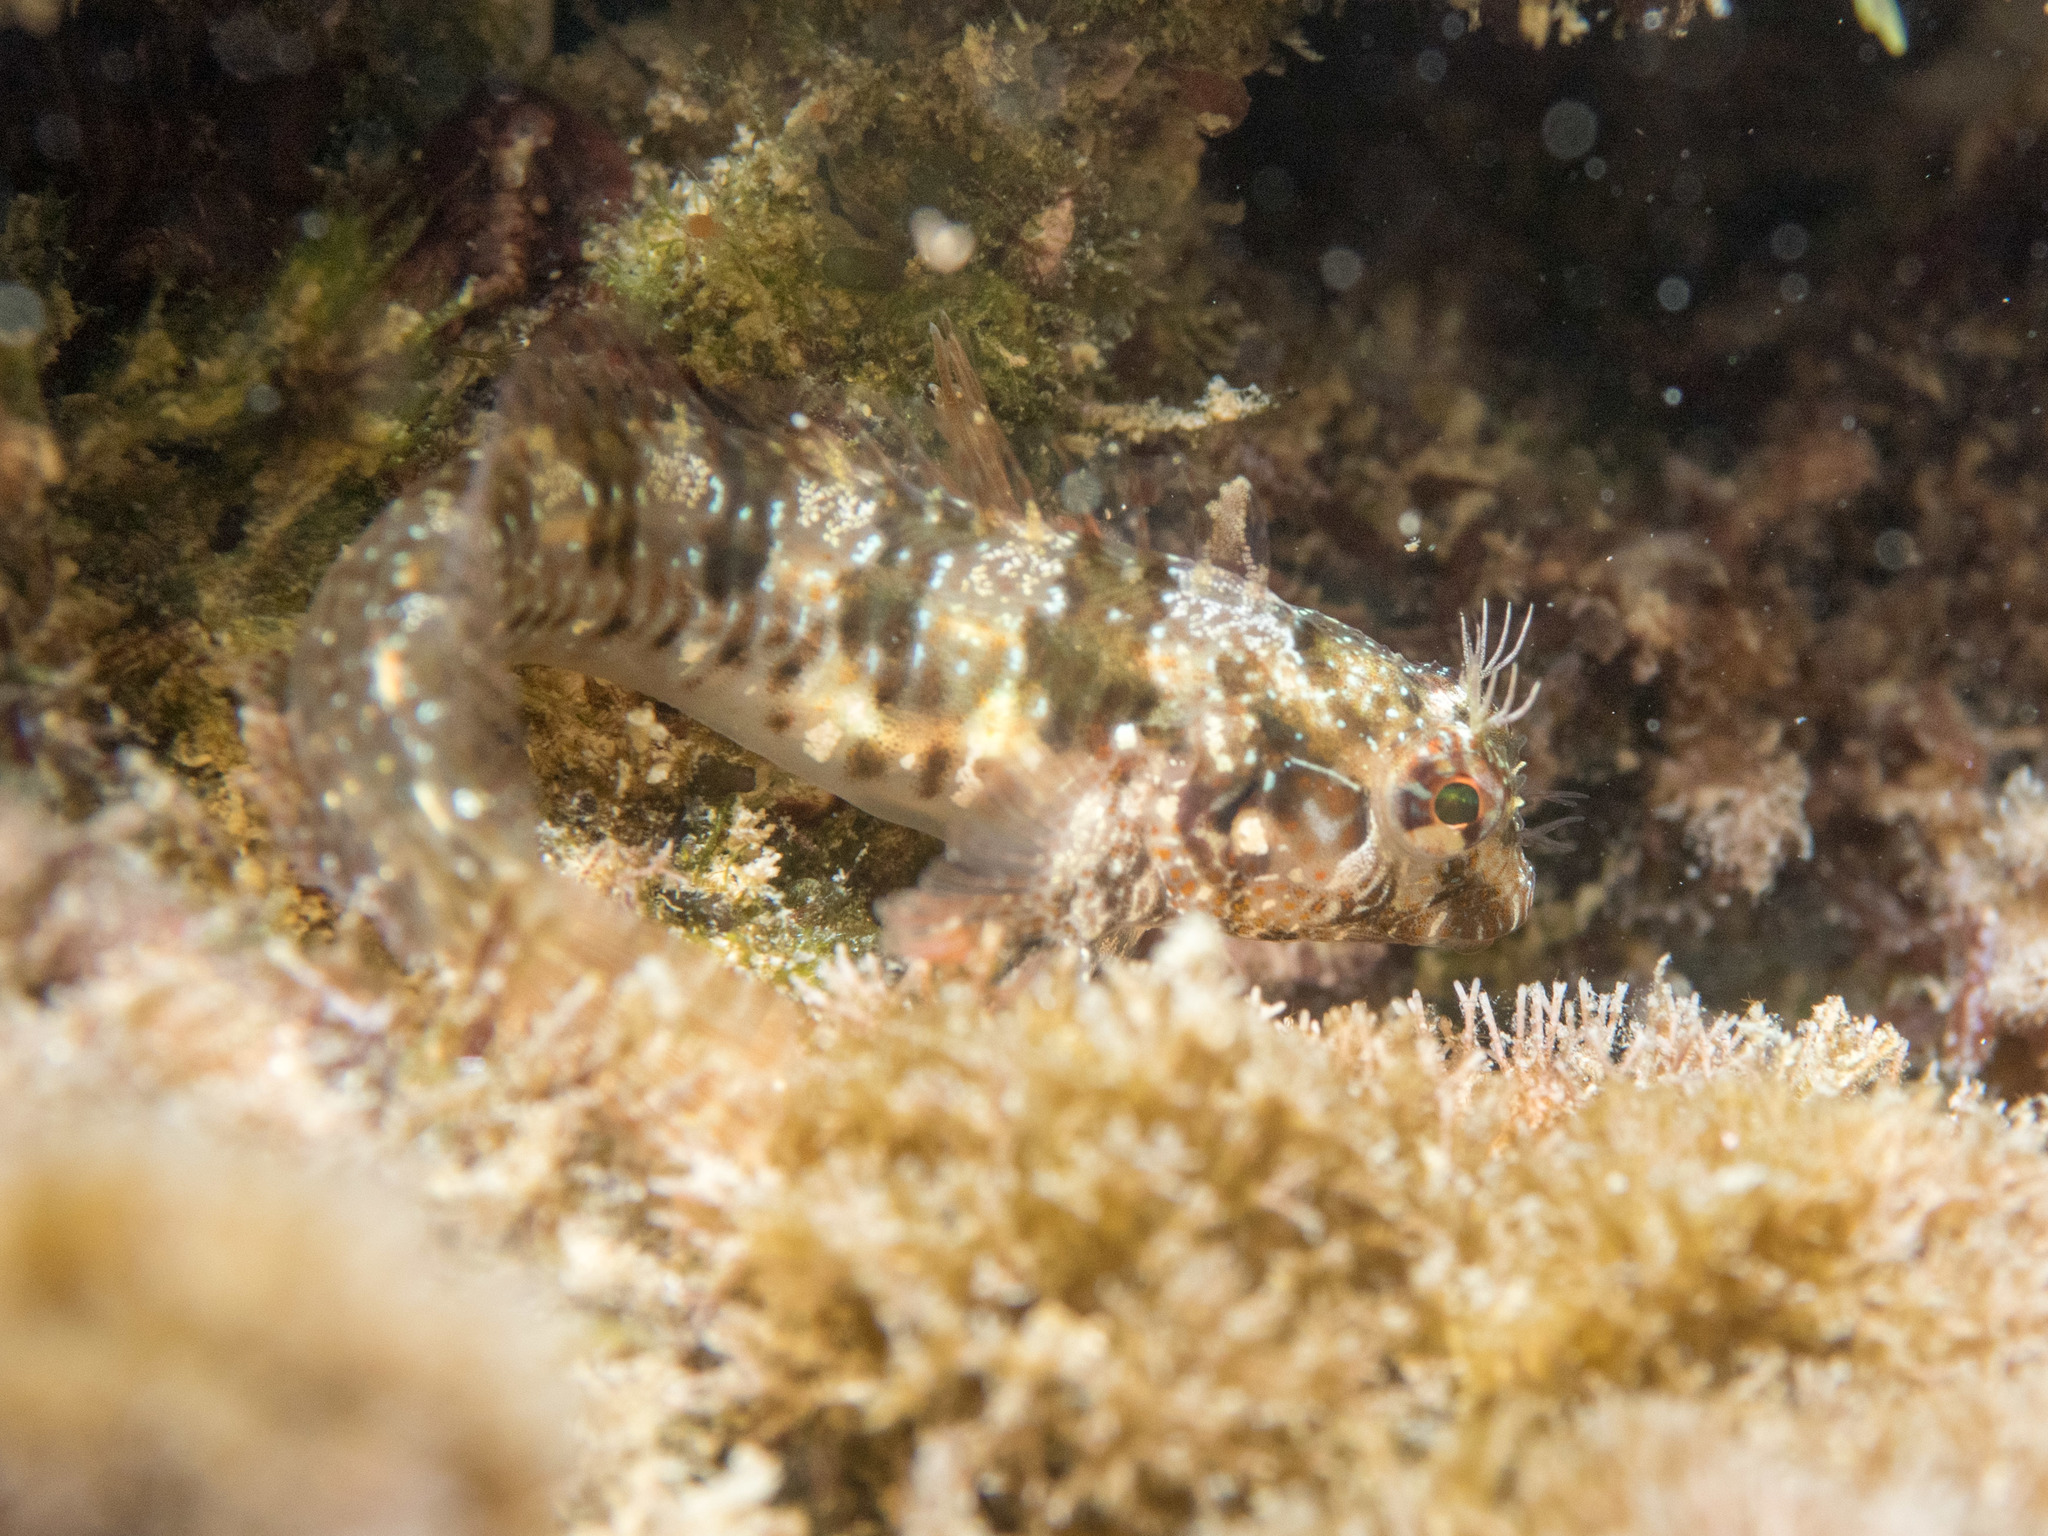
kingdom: Animalia
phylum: Chordata
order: Perciformes
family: Blenniidae
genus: Parablennius
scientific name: Parablennius incognitus
